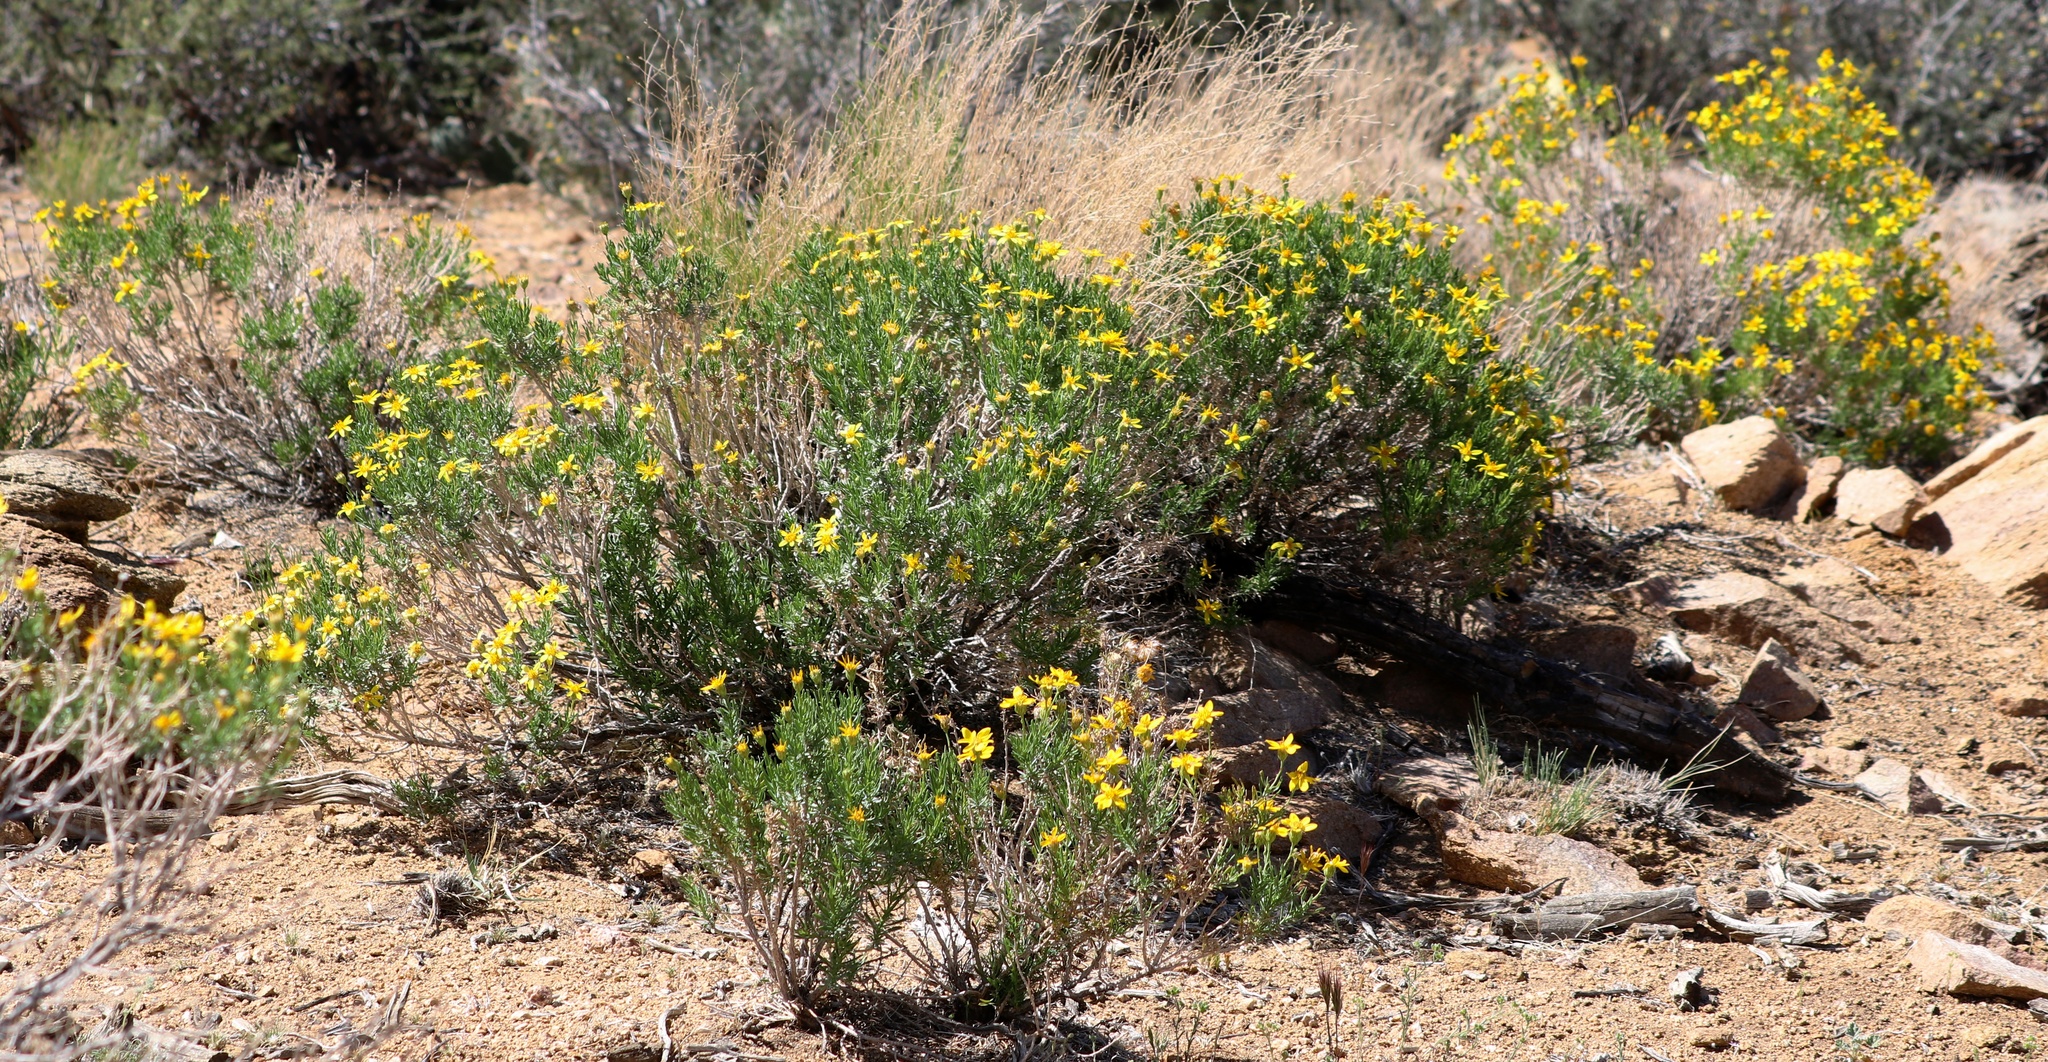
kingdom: Plantae
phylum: Tracheophyta
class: Magnoliopsida
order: Asterales
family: Asteraceae
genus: Ericameria
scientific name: Ericameria linearifolia
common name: Interior goldenbush
